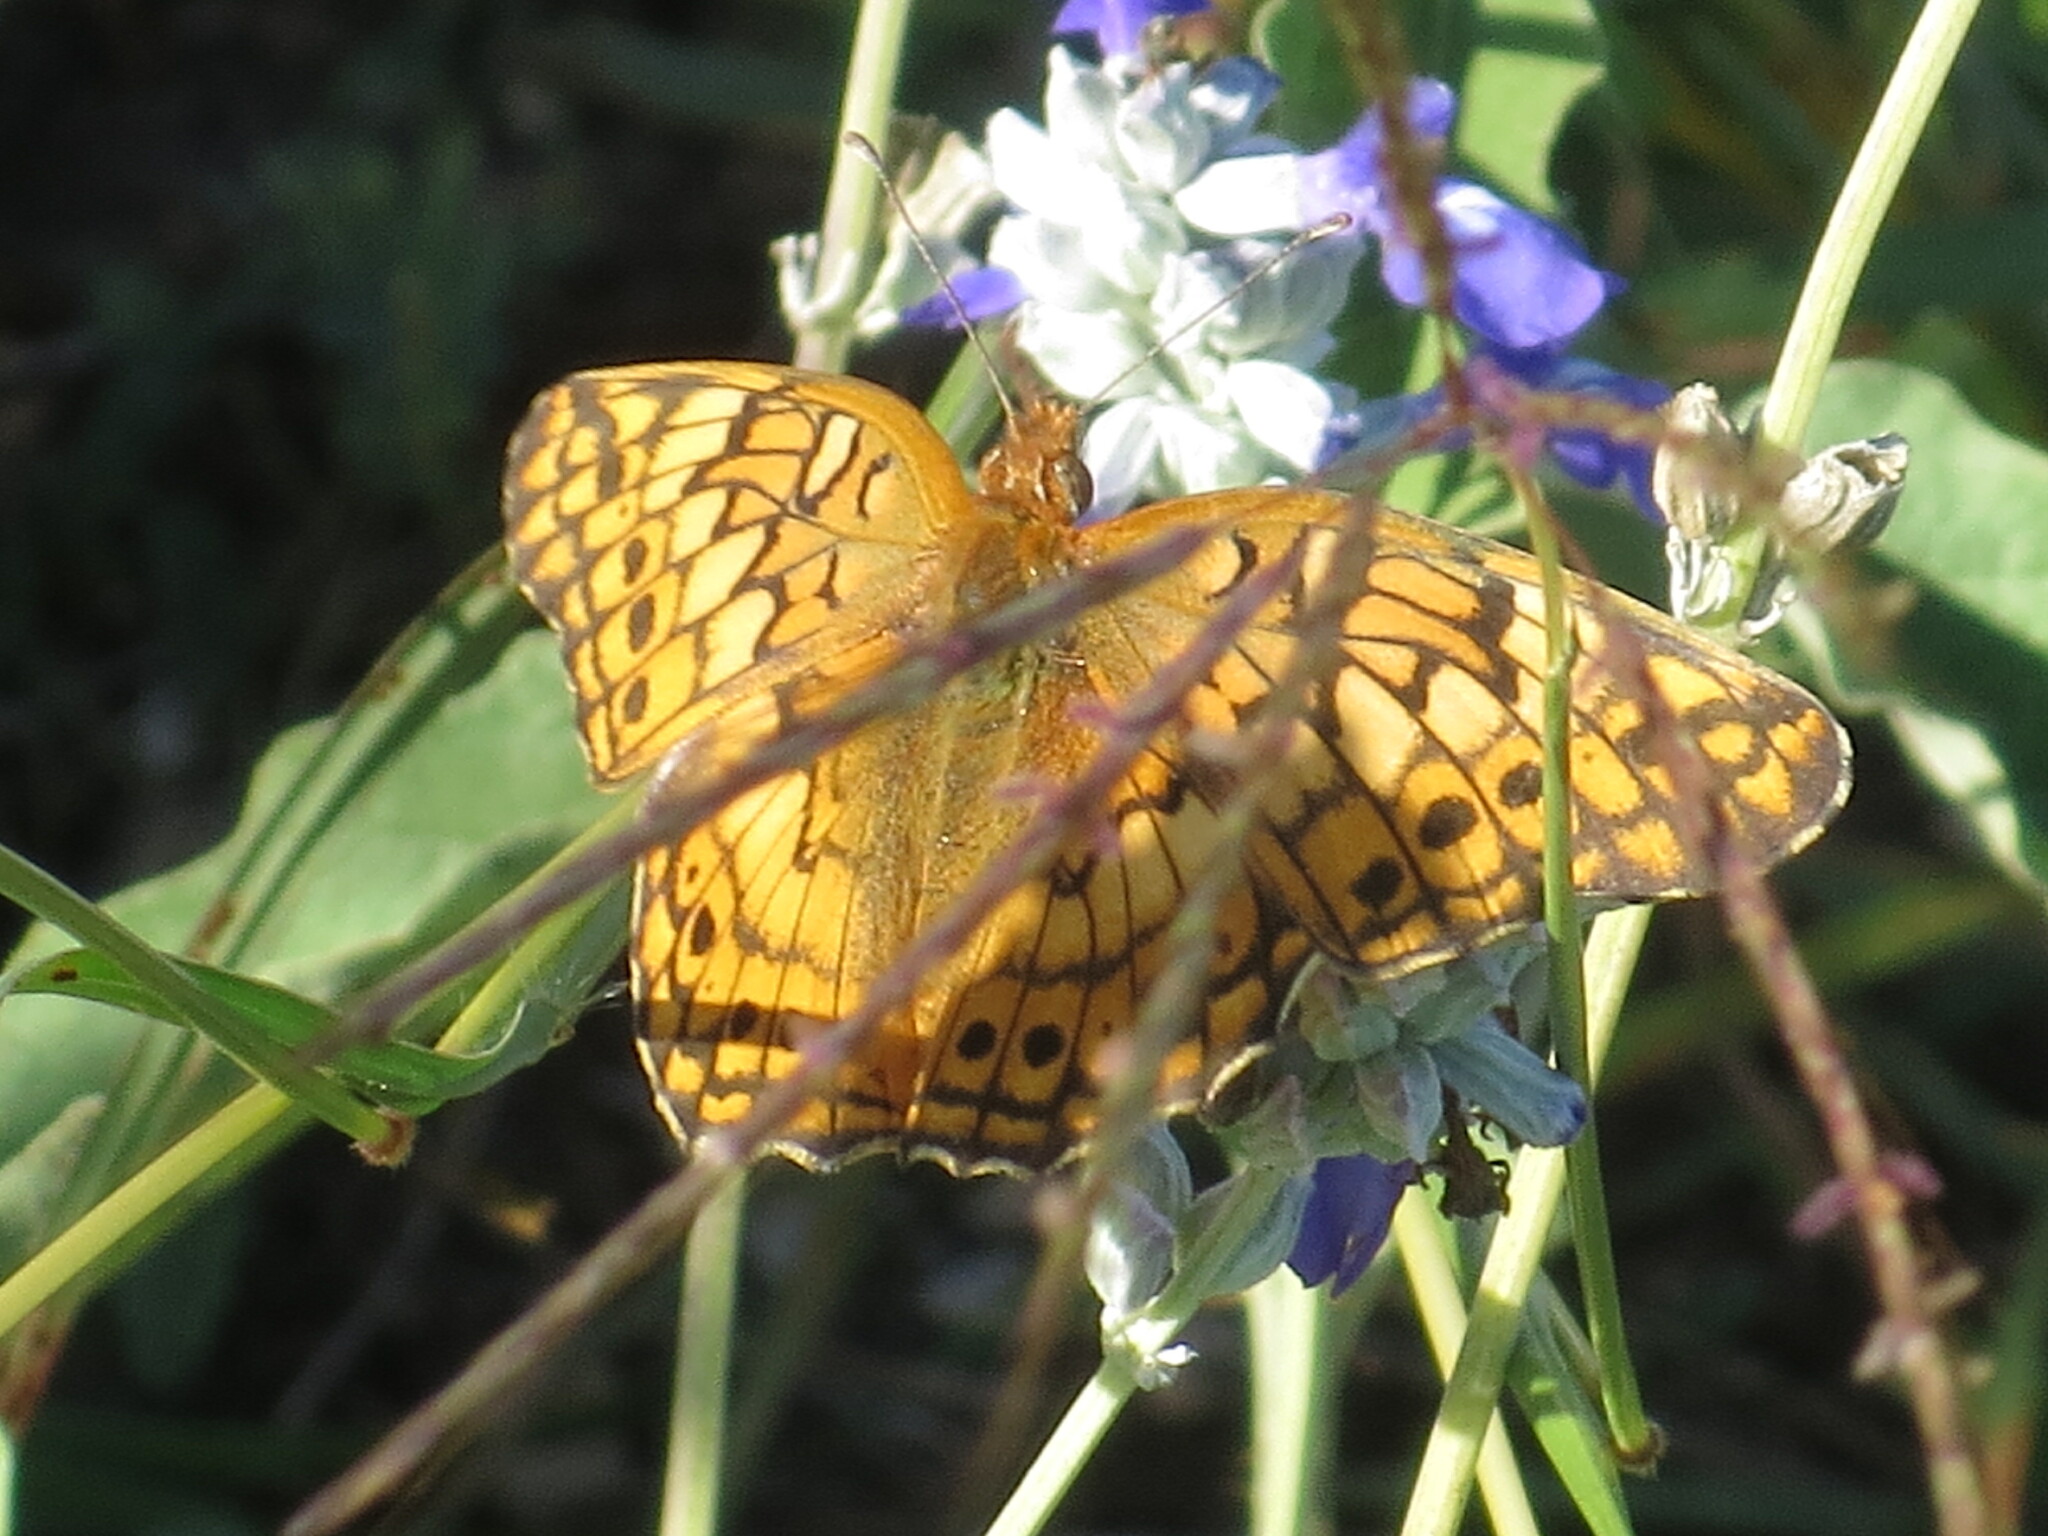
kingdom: Animalia
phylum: Arthropoda
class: Insecta
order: Lepidoptera
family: Nymphalidae
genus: Euptoieta
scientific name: Euptoieta claudia
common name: Variegated fritillary
